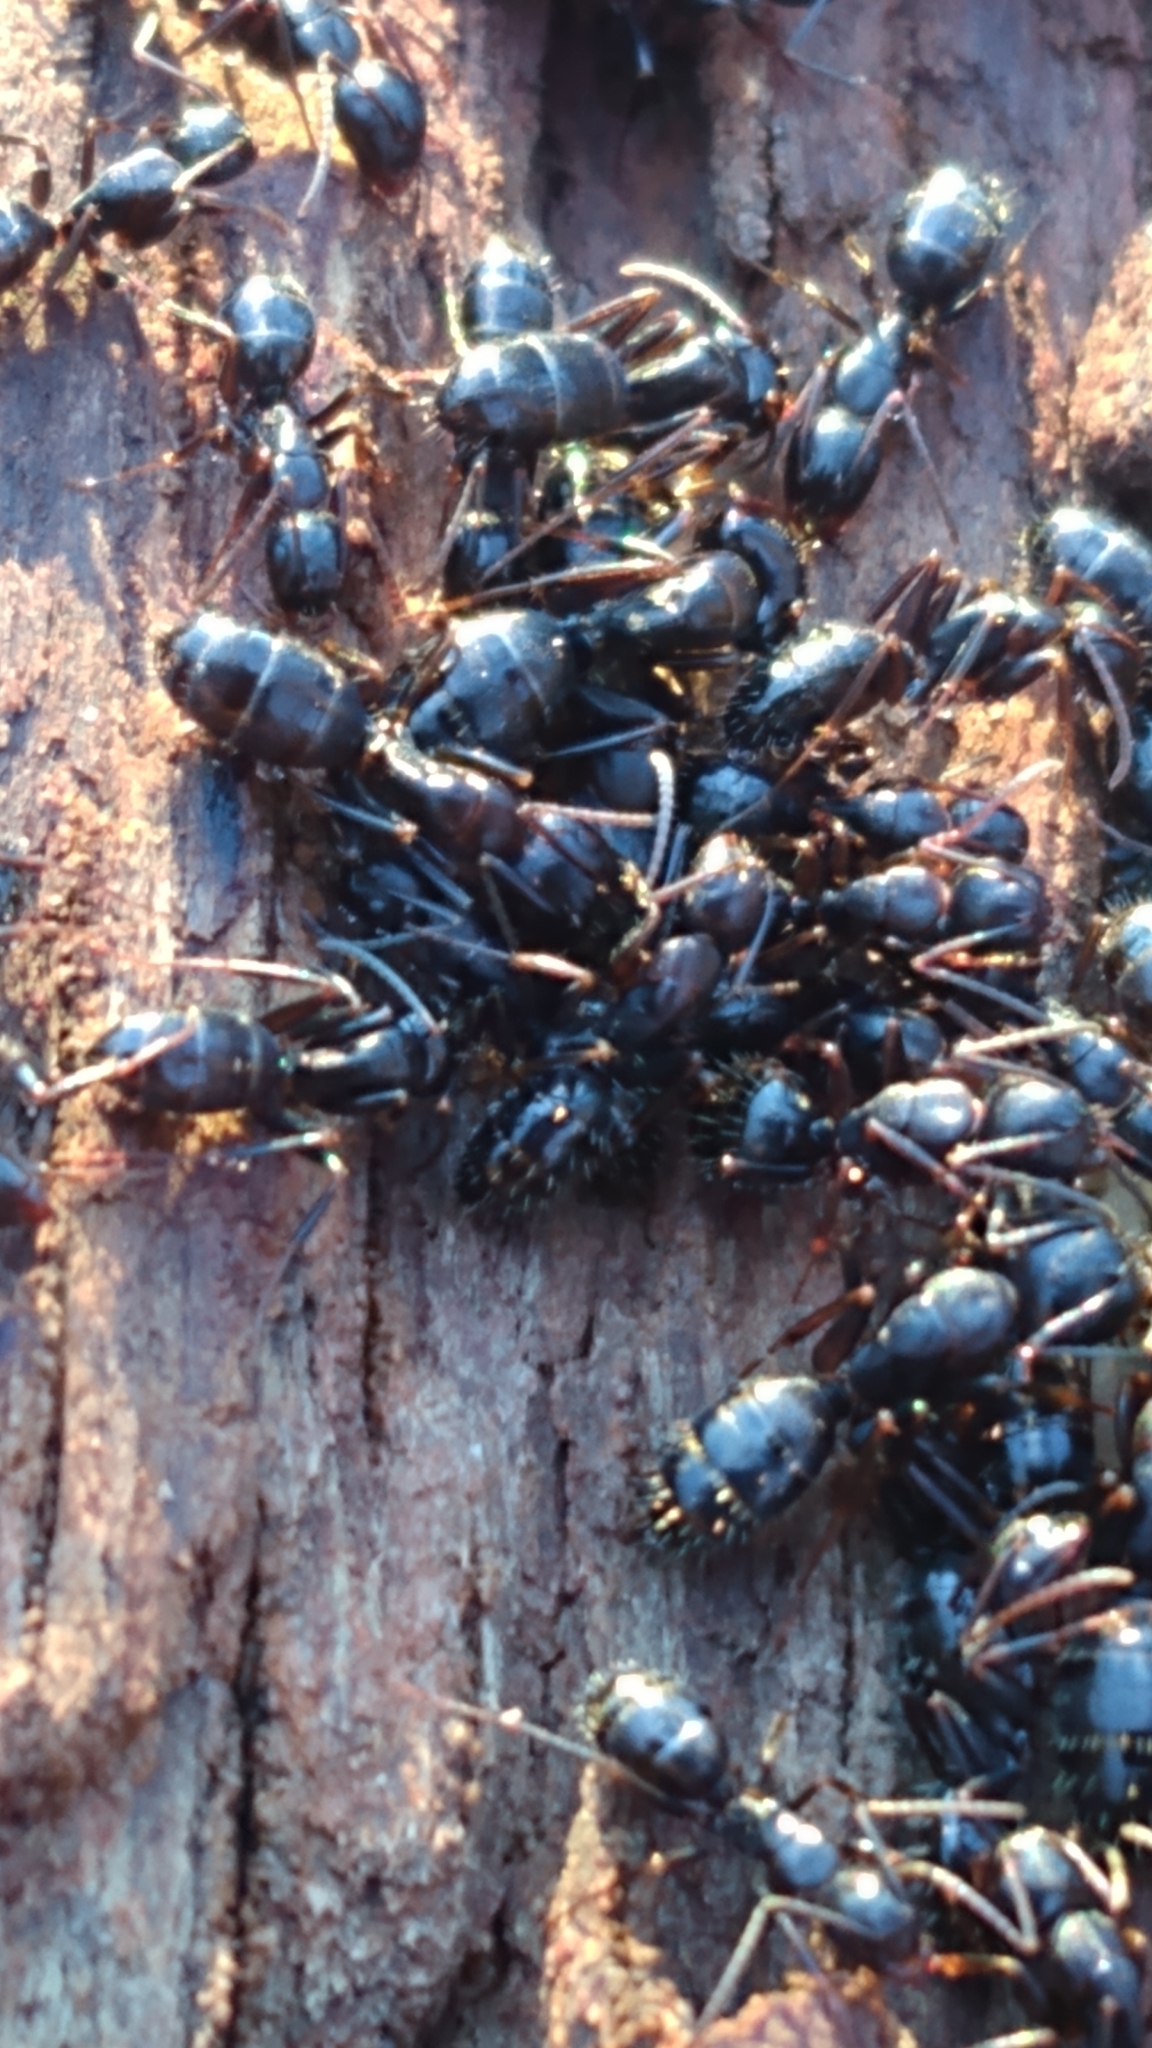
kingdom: Animalia
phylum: Arthropoda
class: Insecta
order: Hymenoptera
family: Formicidae
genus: Camponotus
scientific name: Camponotus nearcticus
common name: Smaller carpenter ant
